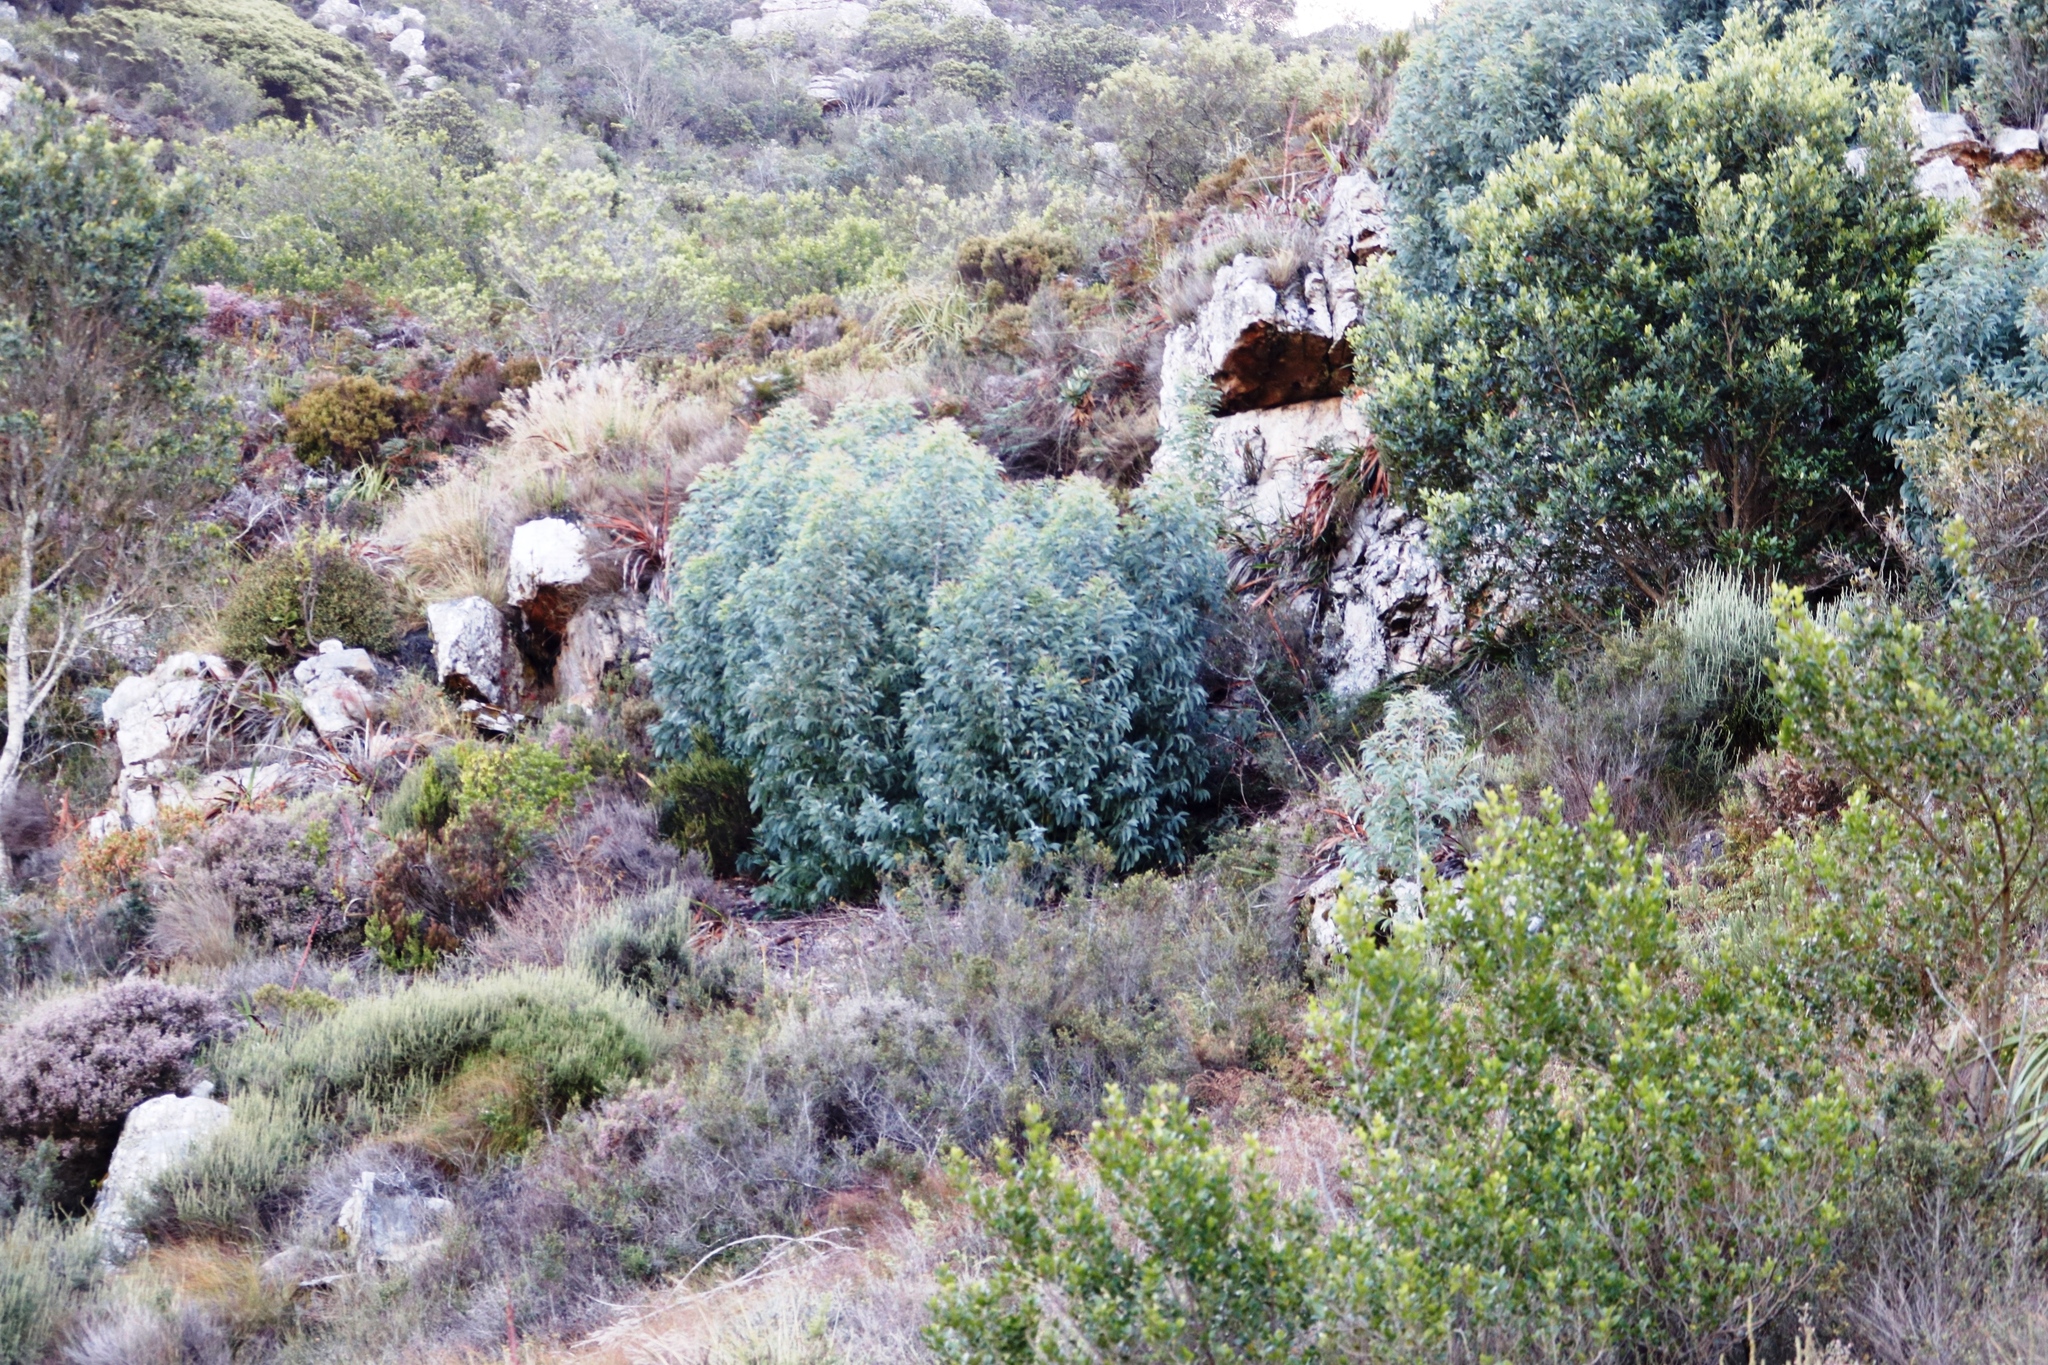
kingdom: Plantae
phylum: Tracheophyta
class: Magnoliopsida
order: Fabales
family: Fabaceae
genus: Acacia
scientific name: Acacia falciformis
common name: Tanning wattle
